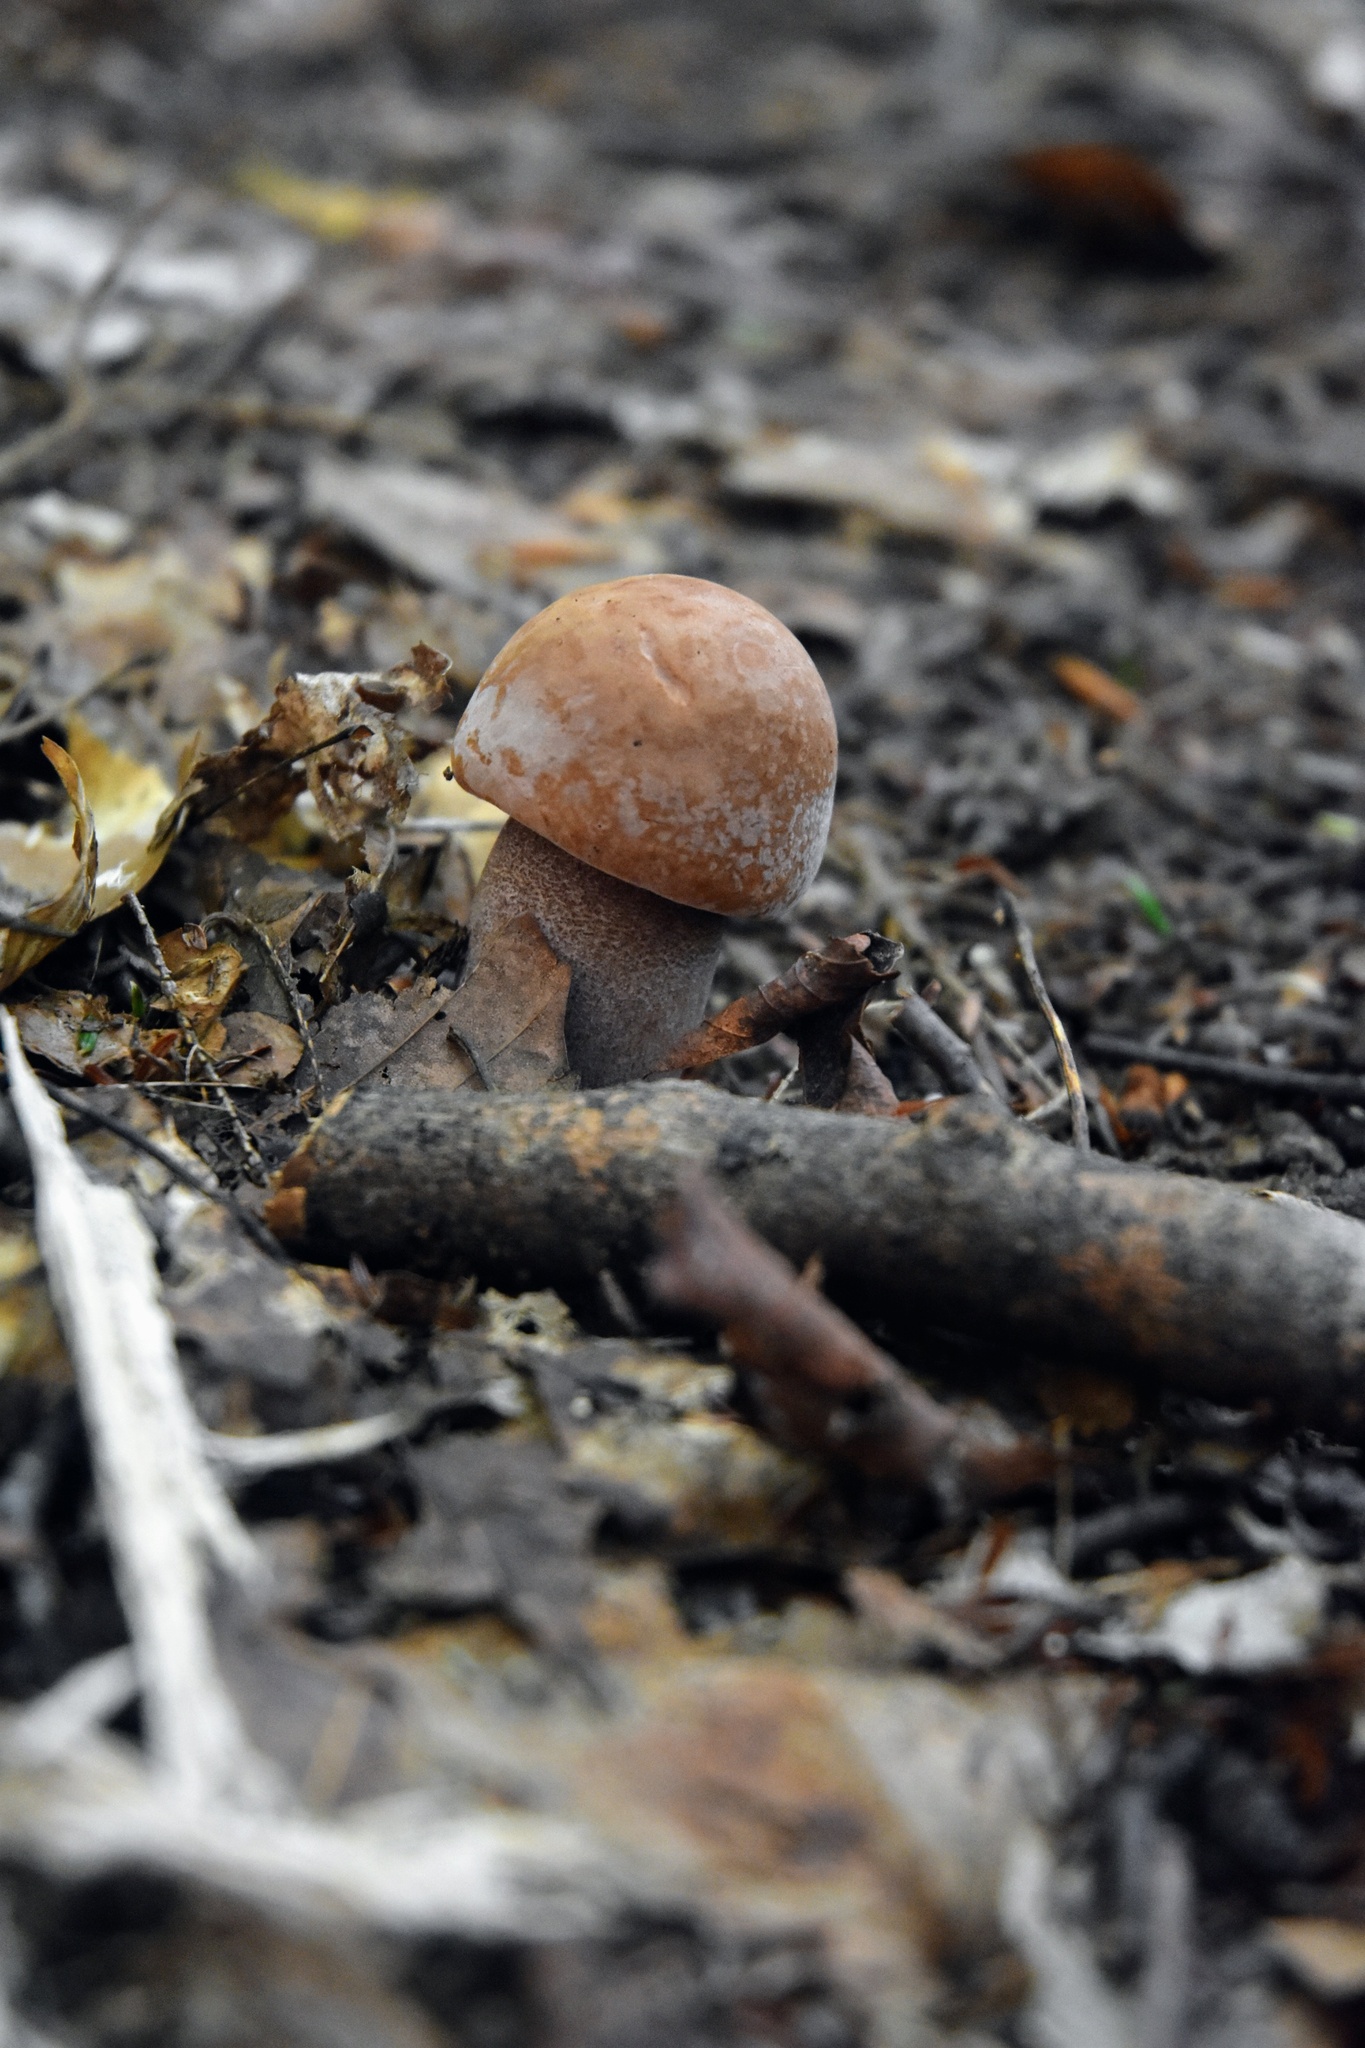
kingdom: Fungi
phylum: Basidiomycota
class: Agaricomycetes
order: Boletales
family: Boletaceae
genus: Sutorius
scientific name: Sutorius eximius
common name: Lilac-brown bolete
